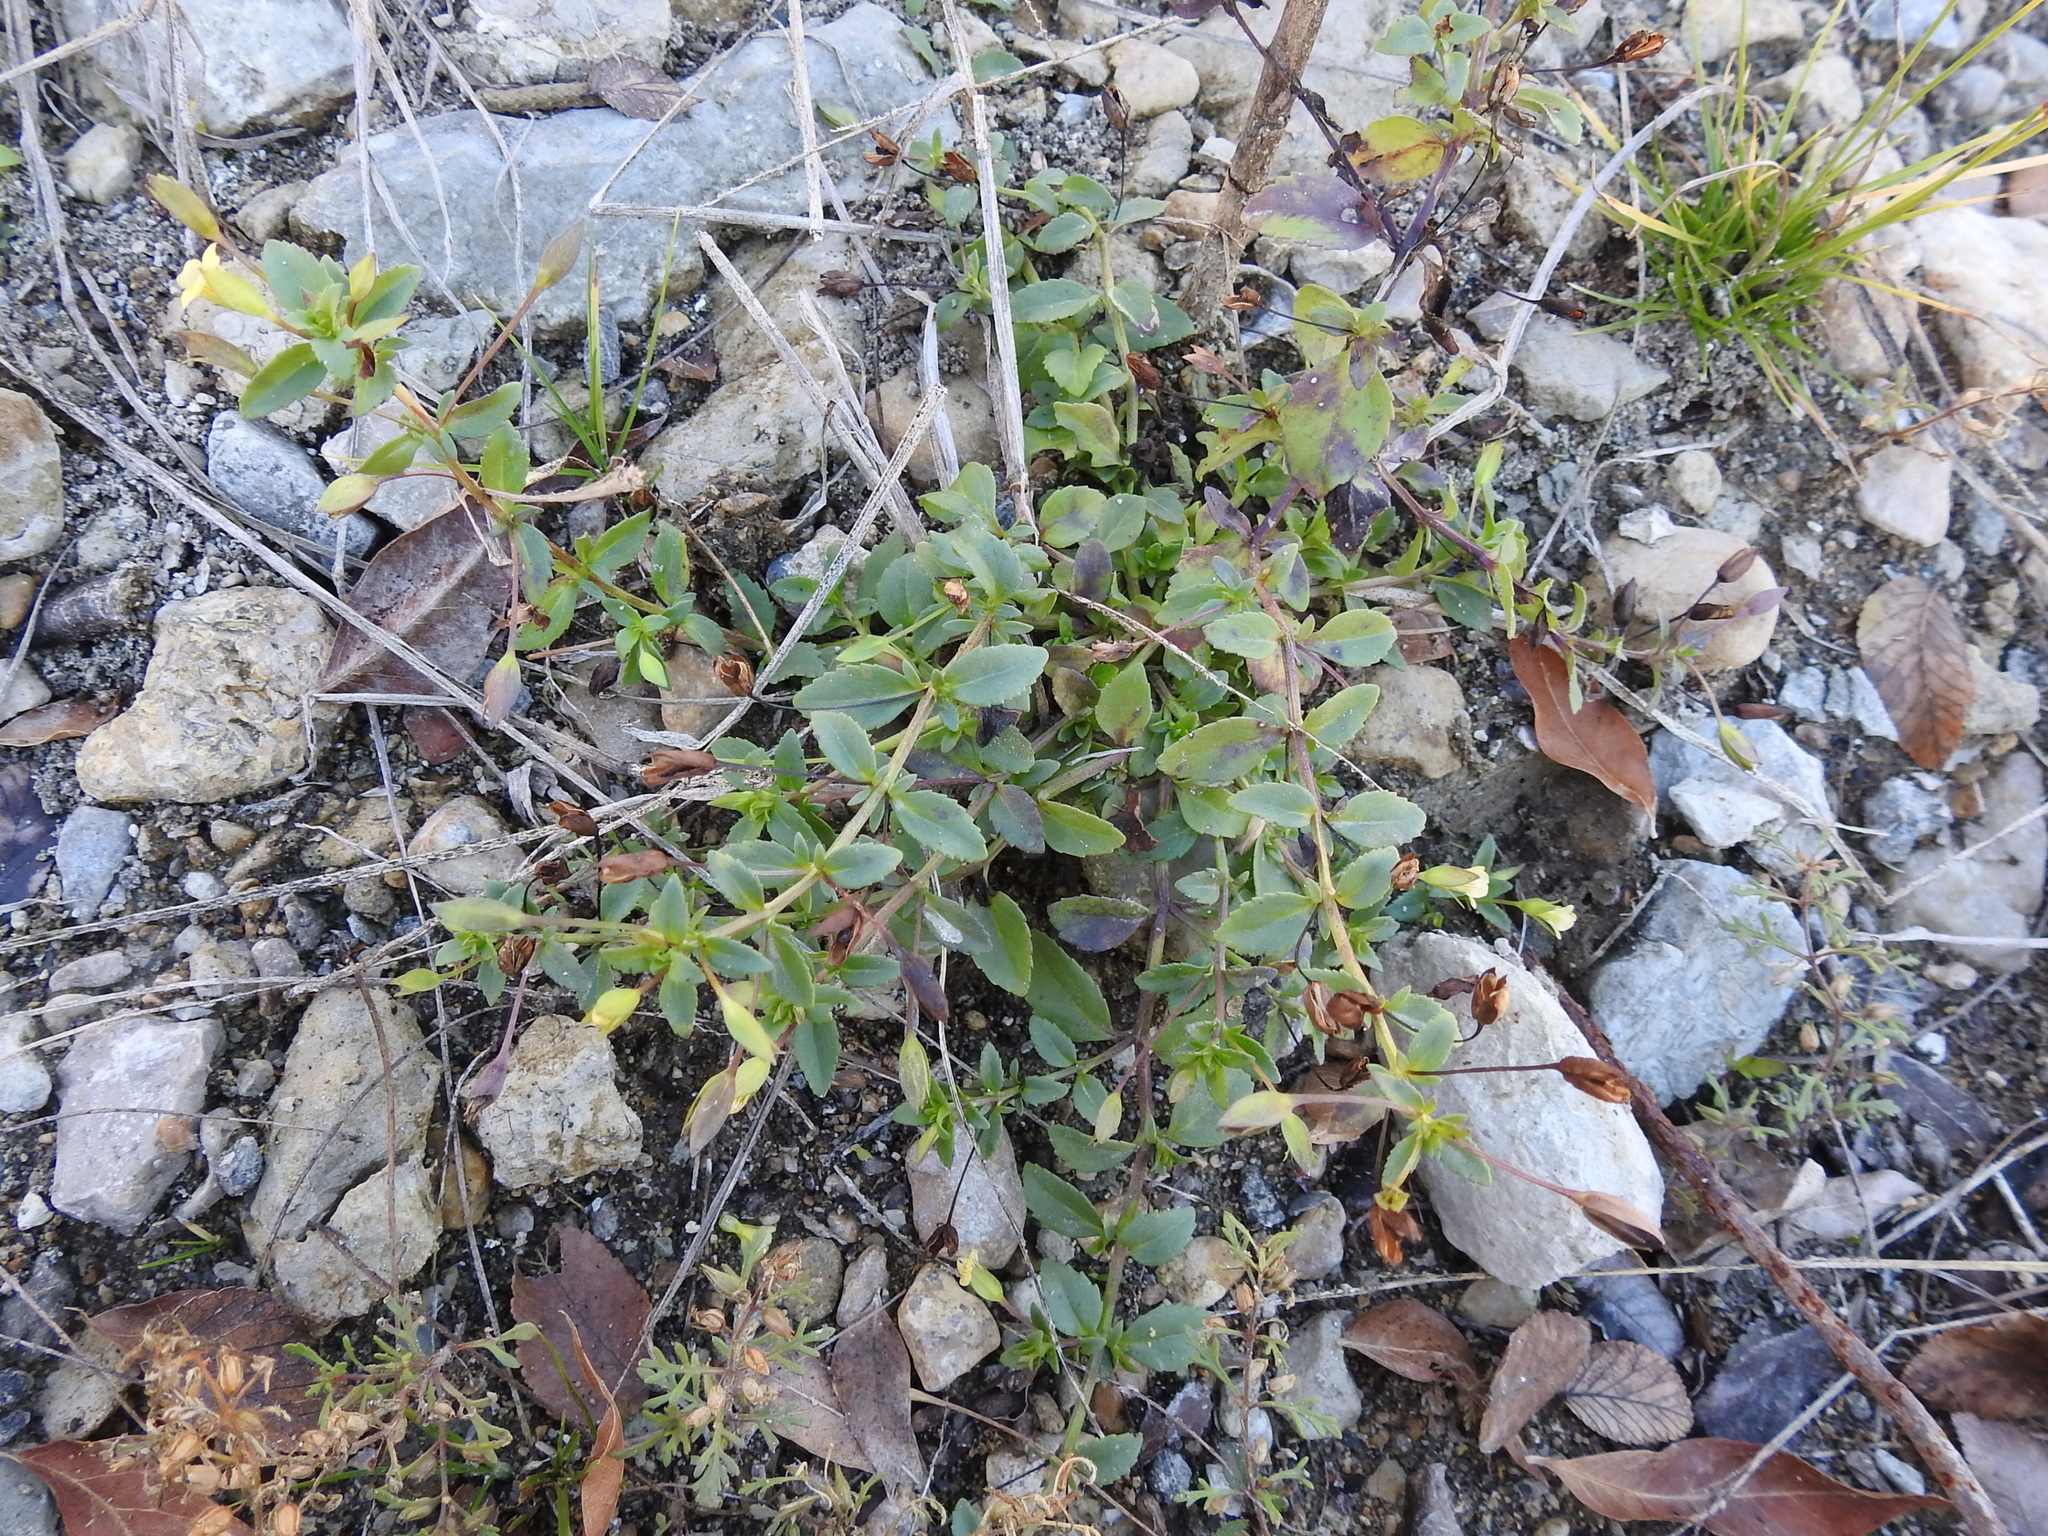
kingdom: Plantae
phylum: Tracheophyta
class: Magnoliopsida
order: Lamiales
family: Plantaginaceae
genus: Mecardonia
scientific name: Mecardonia procumbens
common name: Baby jump-up
